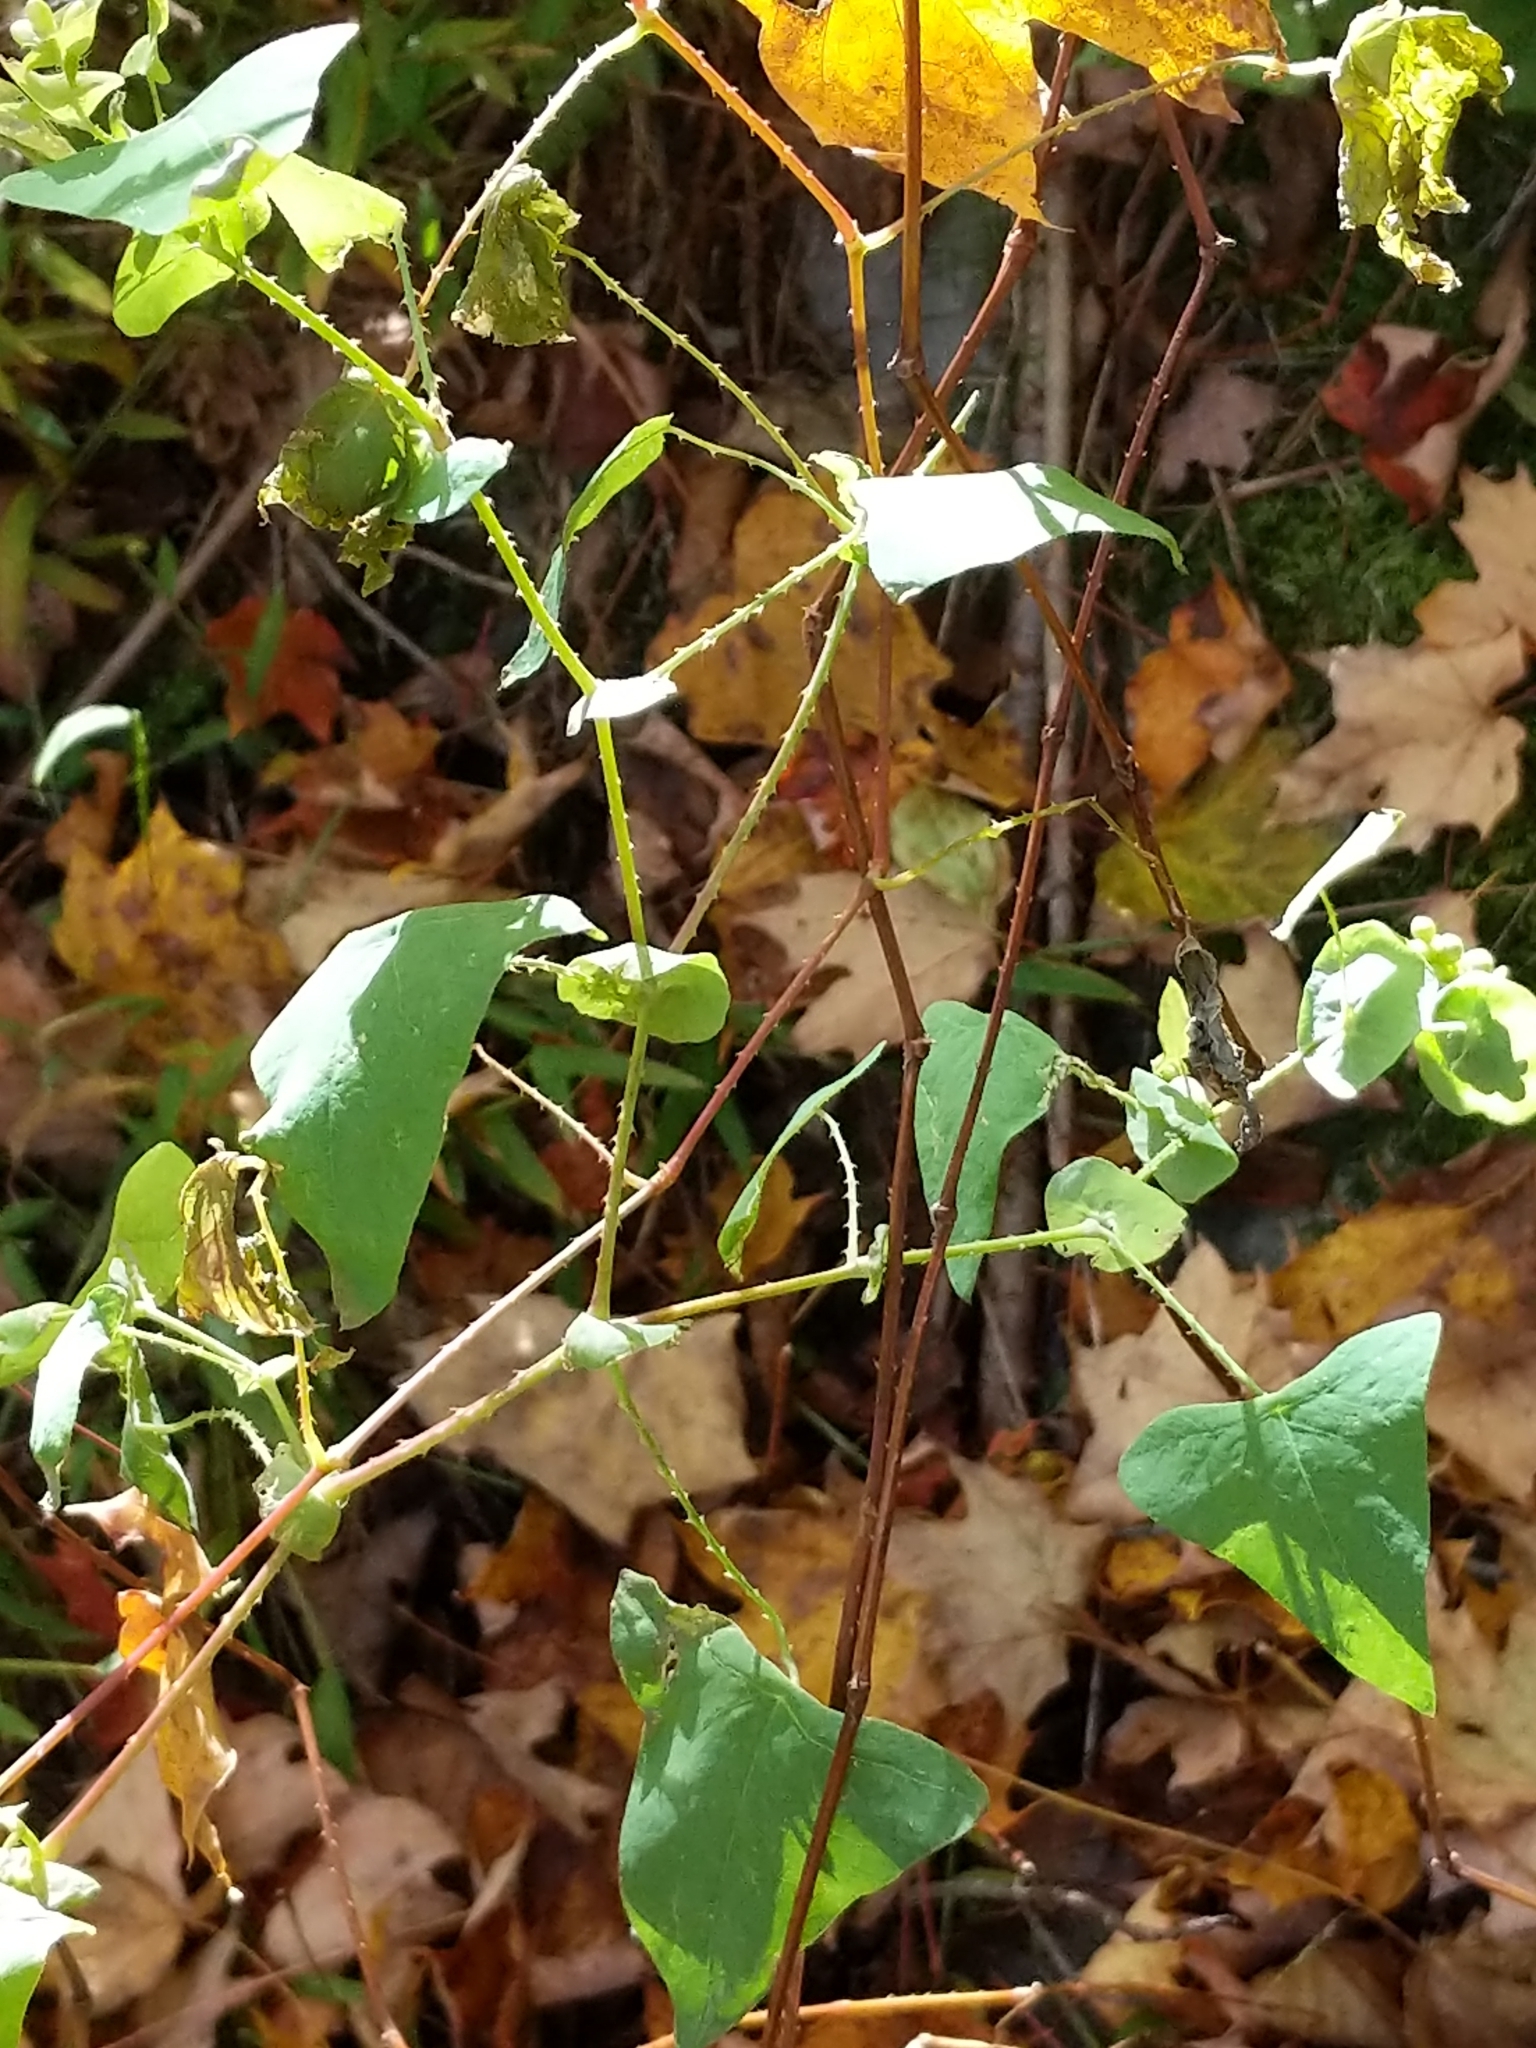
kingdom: Plantae
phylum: Tracheophyta
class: Magnoliopsida
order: Caryophyllales
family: Polygonaceae
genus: Persicaria
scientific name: Persicaria perfoliata
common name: Asiatic tearthumb
